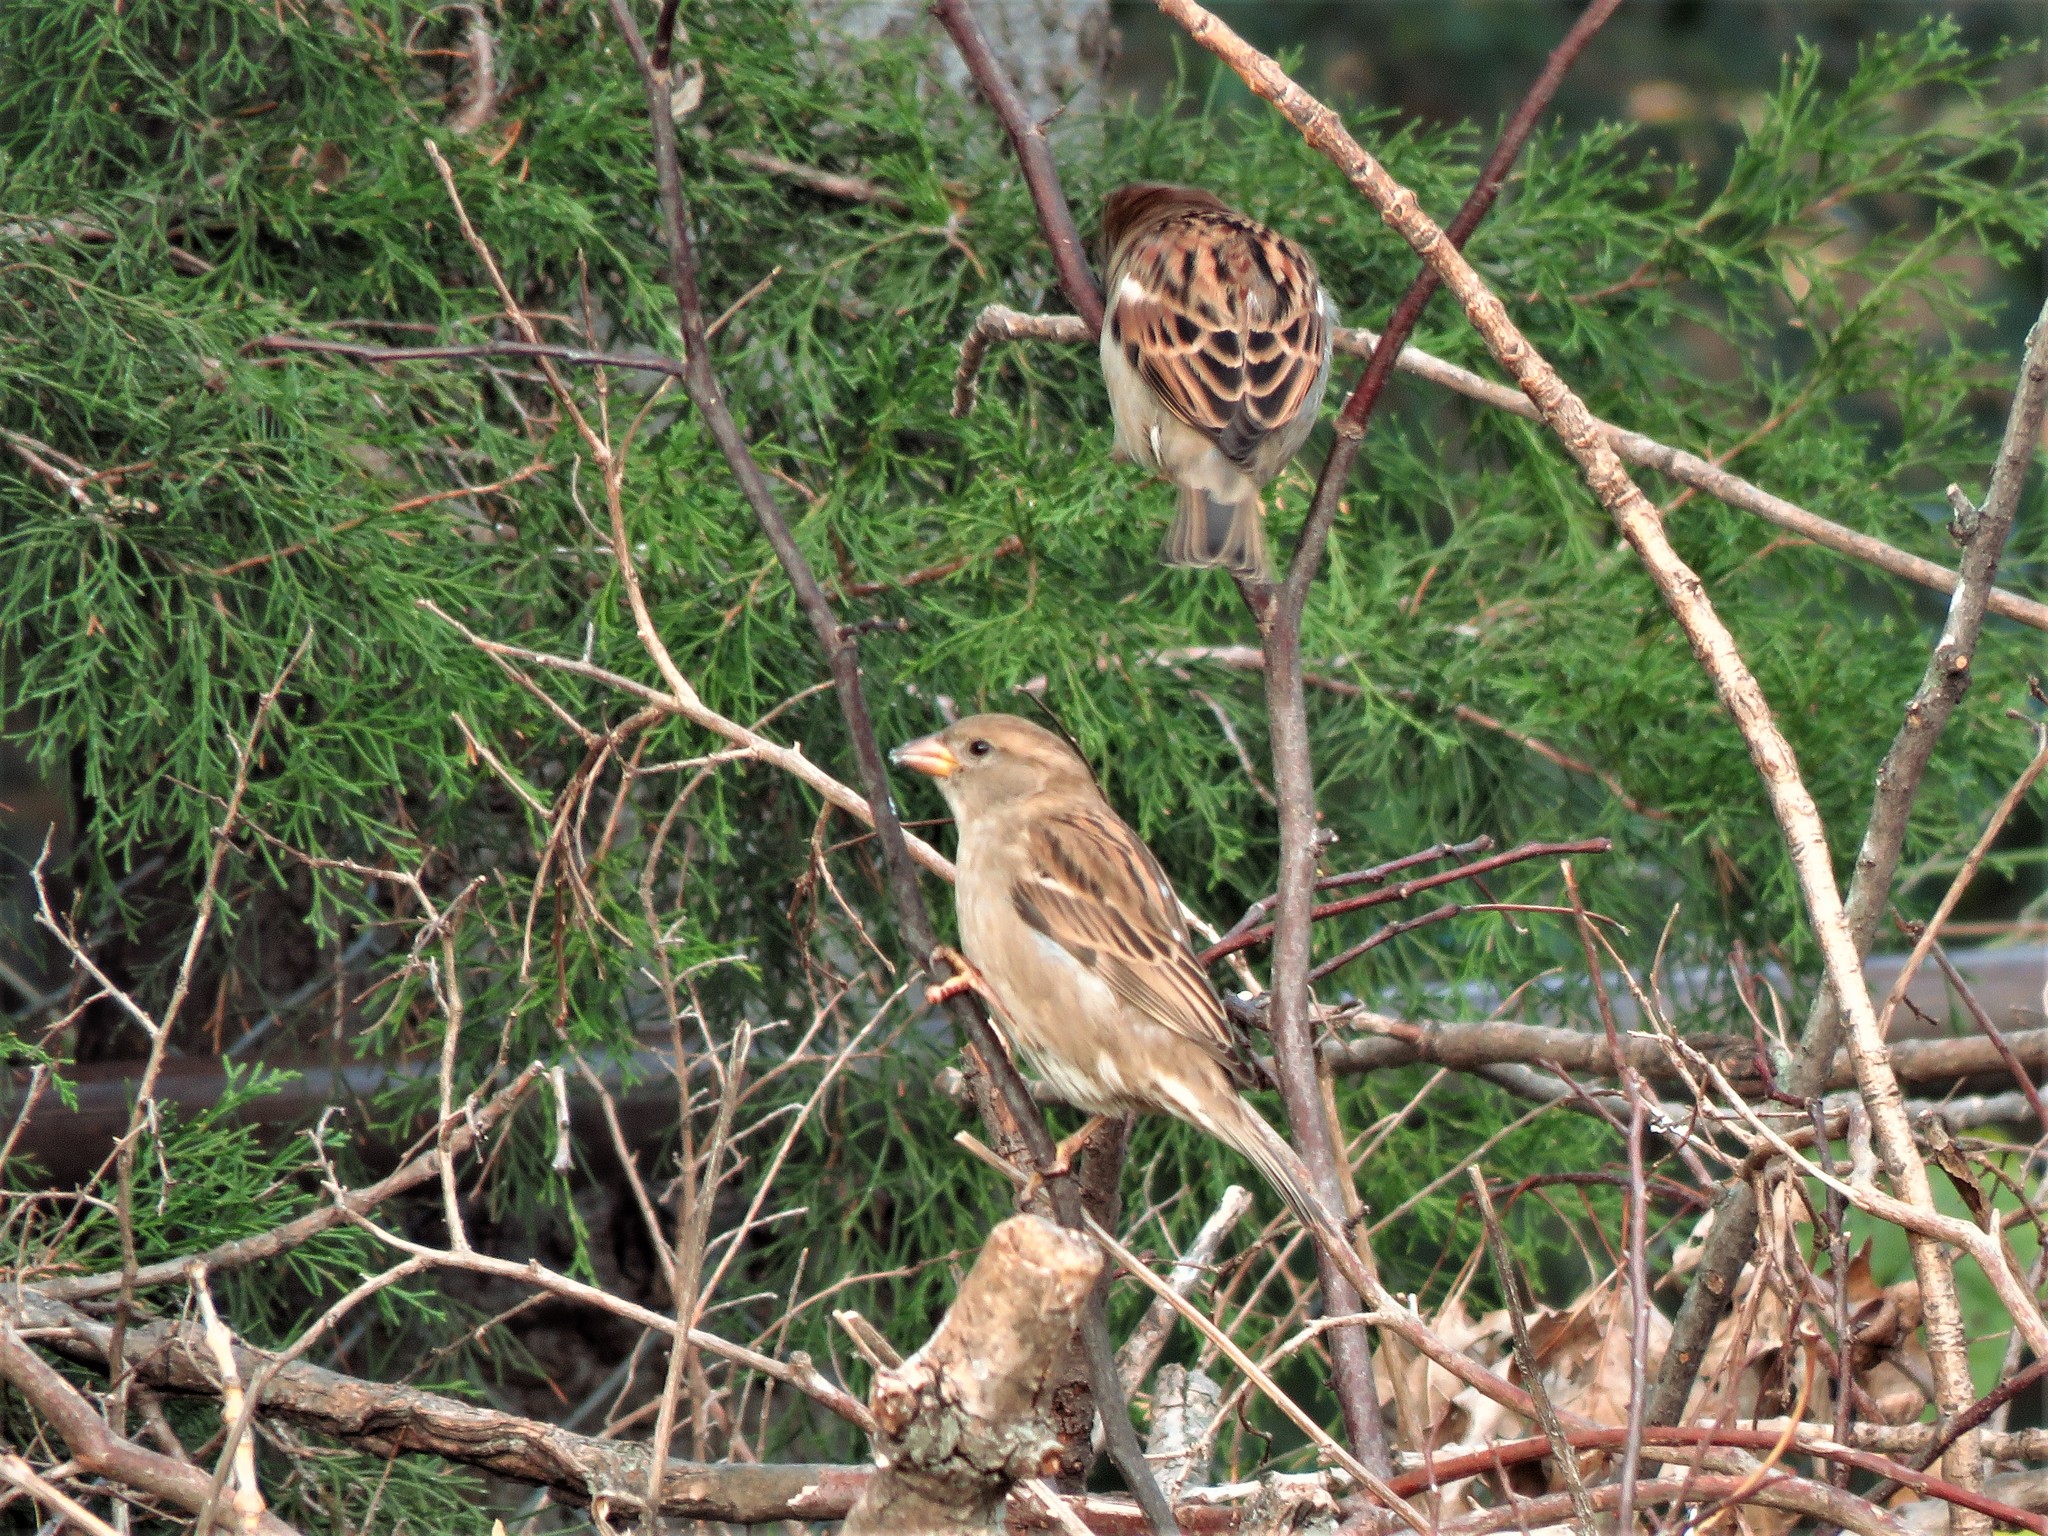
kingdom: Animalia
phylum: Chordata
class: Aves
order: Passeriformes
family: Passeridae
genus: Passer
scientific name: Passer domesticus
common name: House sparrow
